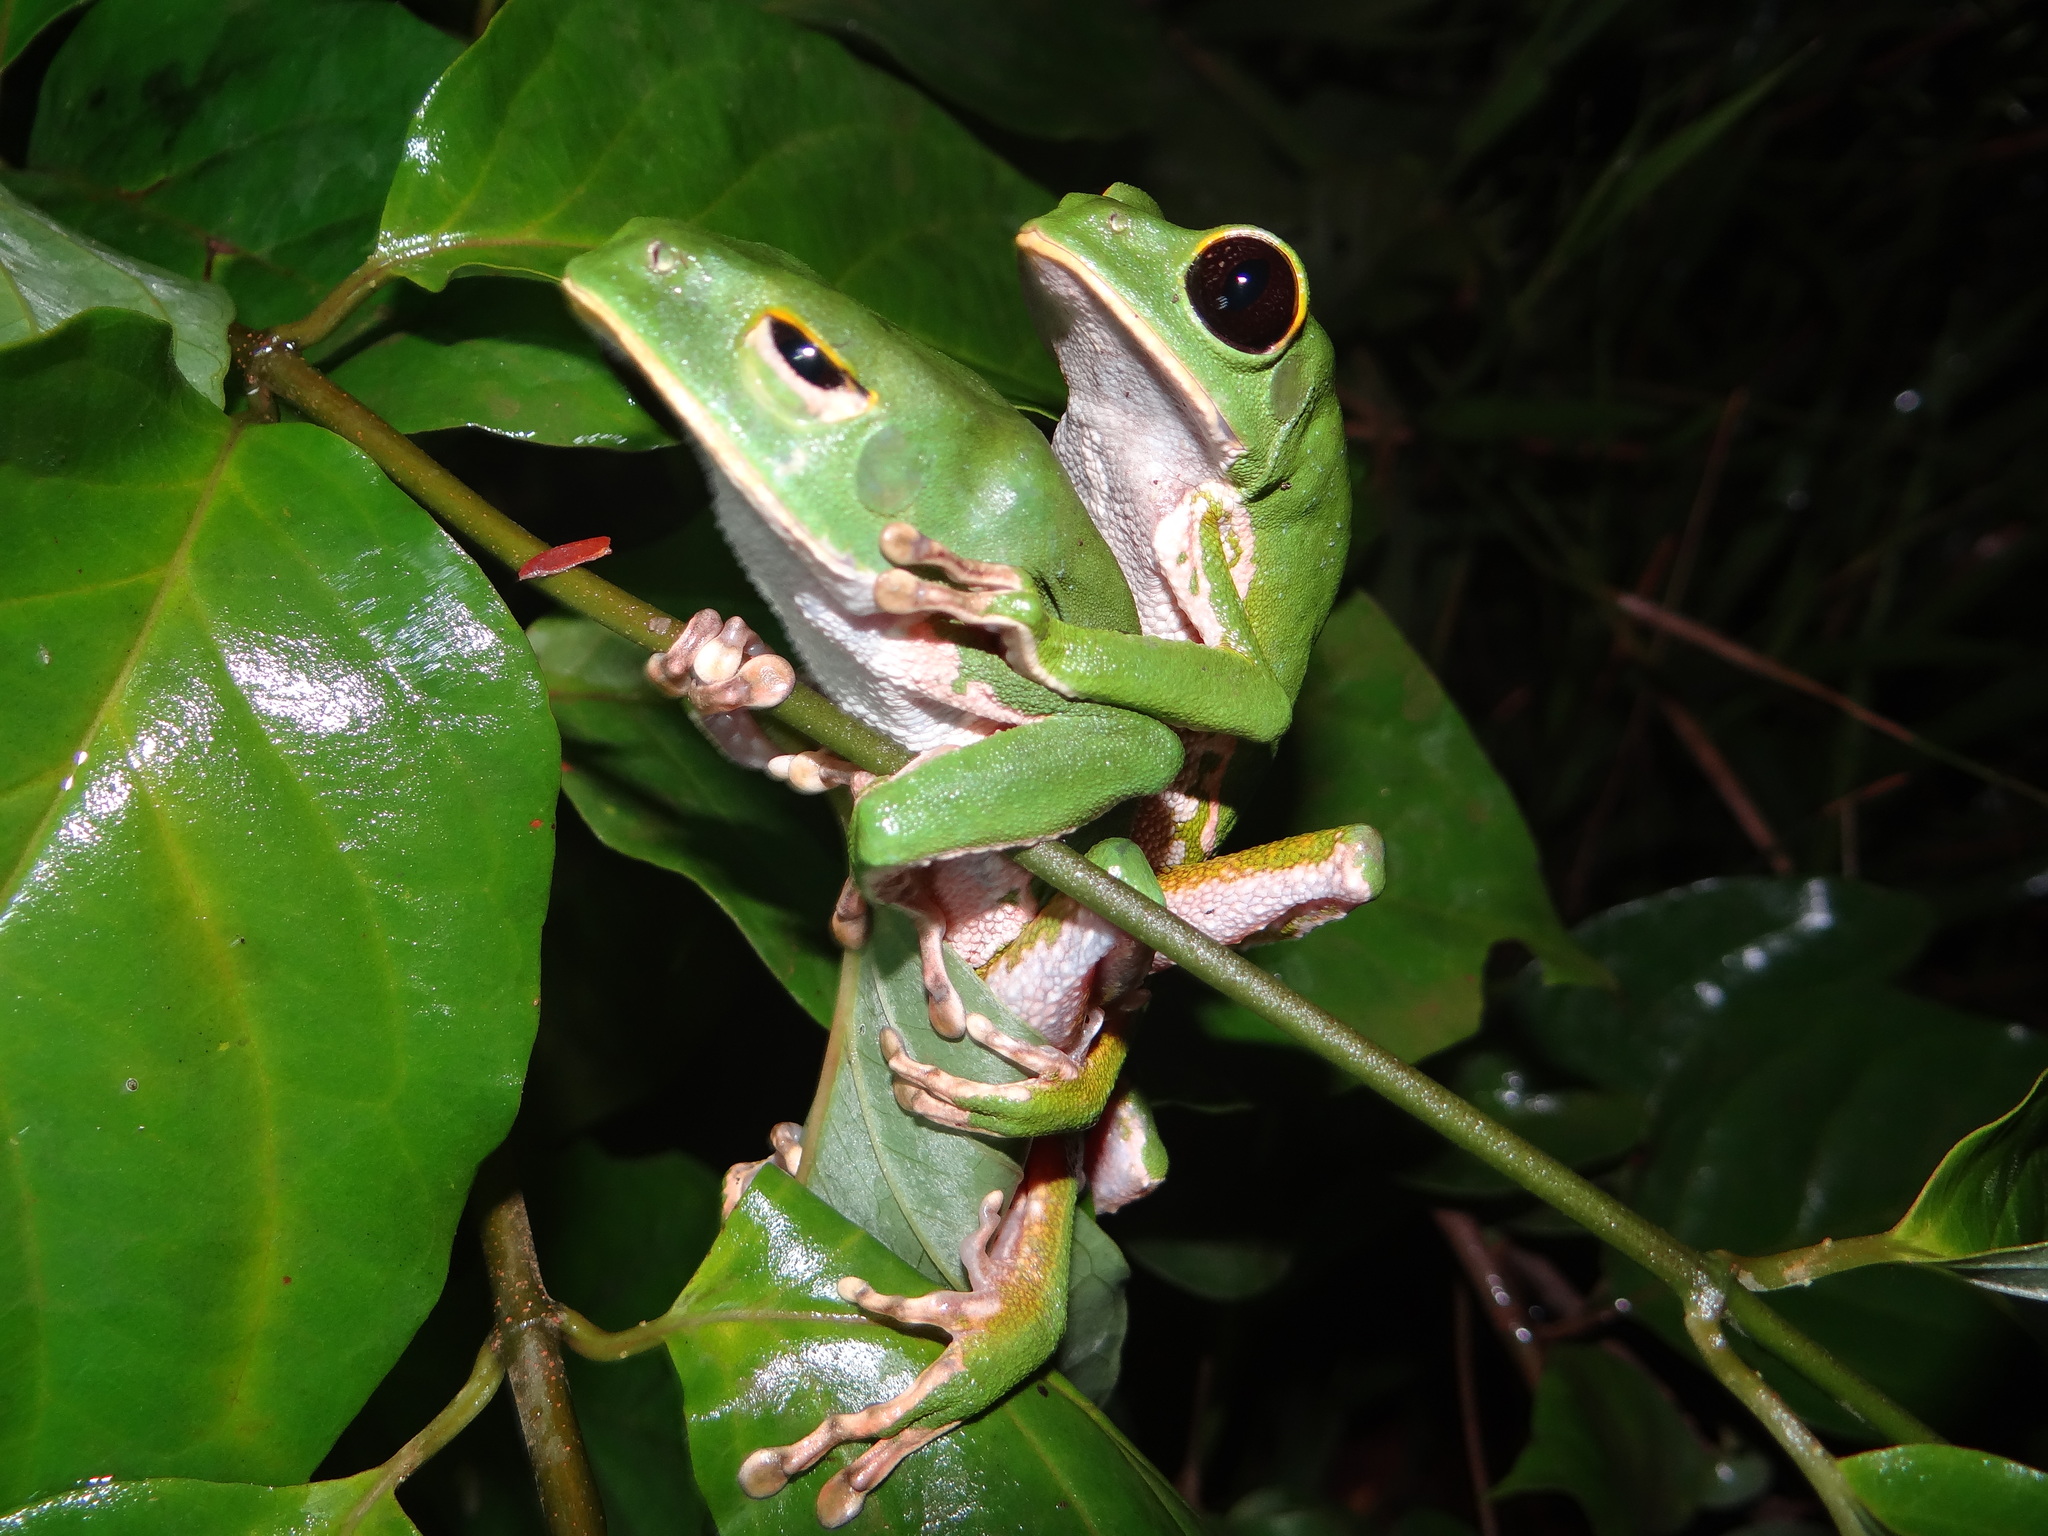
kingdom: Animalia
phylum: Chordata
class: Amphibia
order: Anura
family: Phyllomedusidae
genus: Phyllomedusa
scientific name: Phyllomedusa camba
